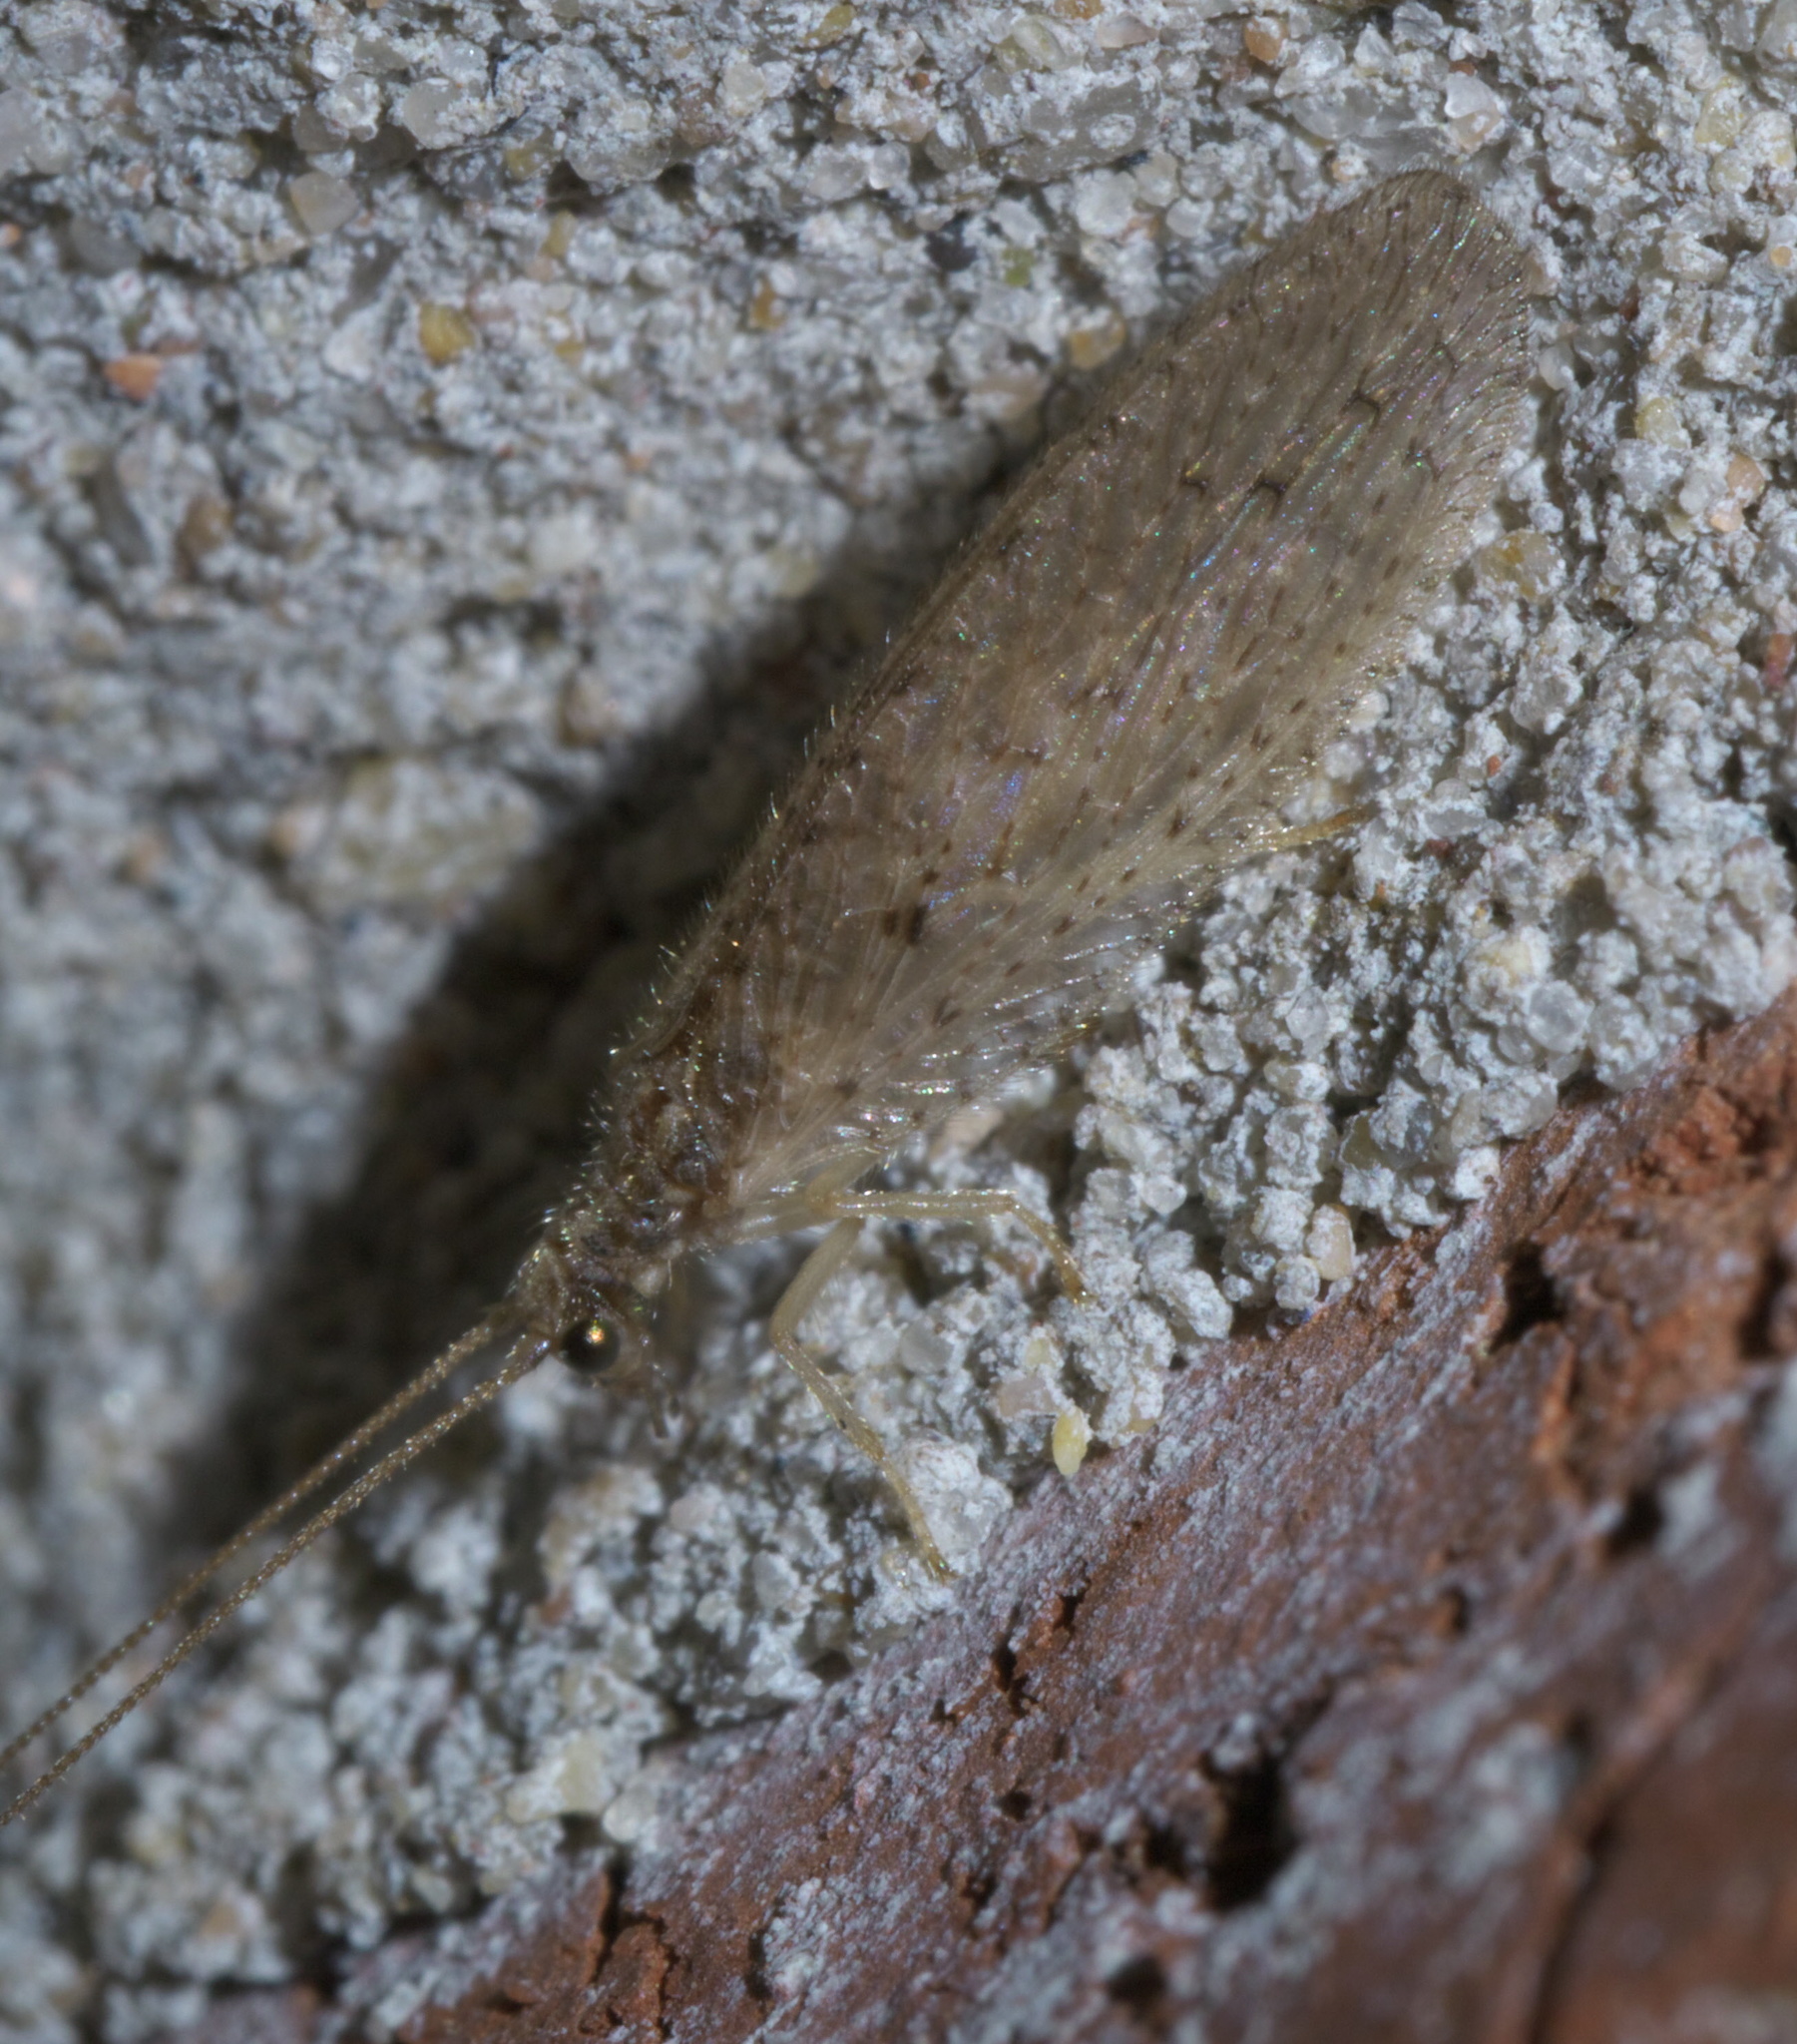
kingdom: Animalia
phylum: Arthropoda
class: Insecta
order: Neuroptera
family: Hemerobiidae
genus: Micromus
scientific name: Micromus subanticus
